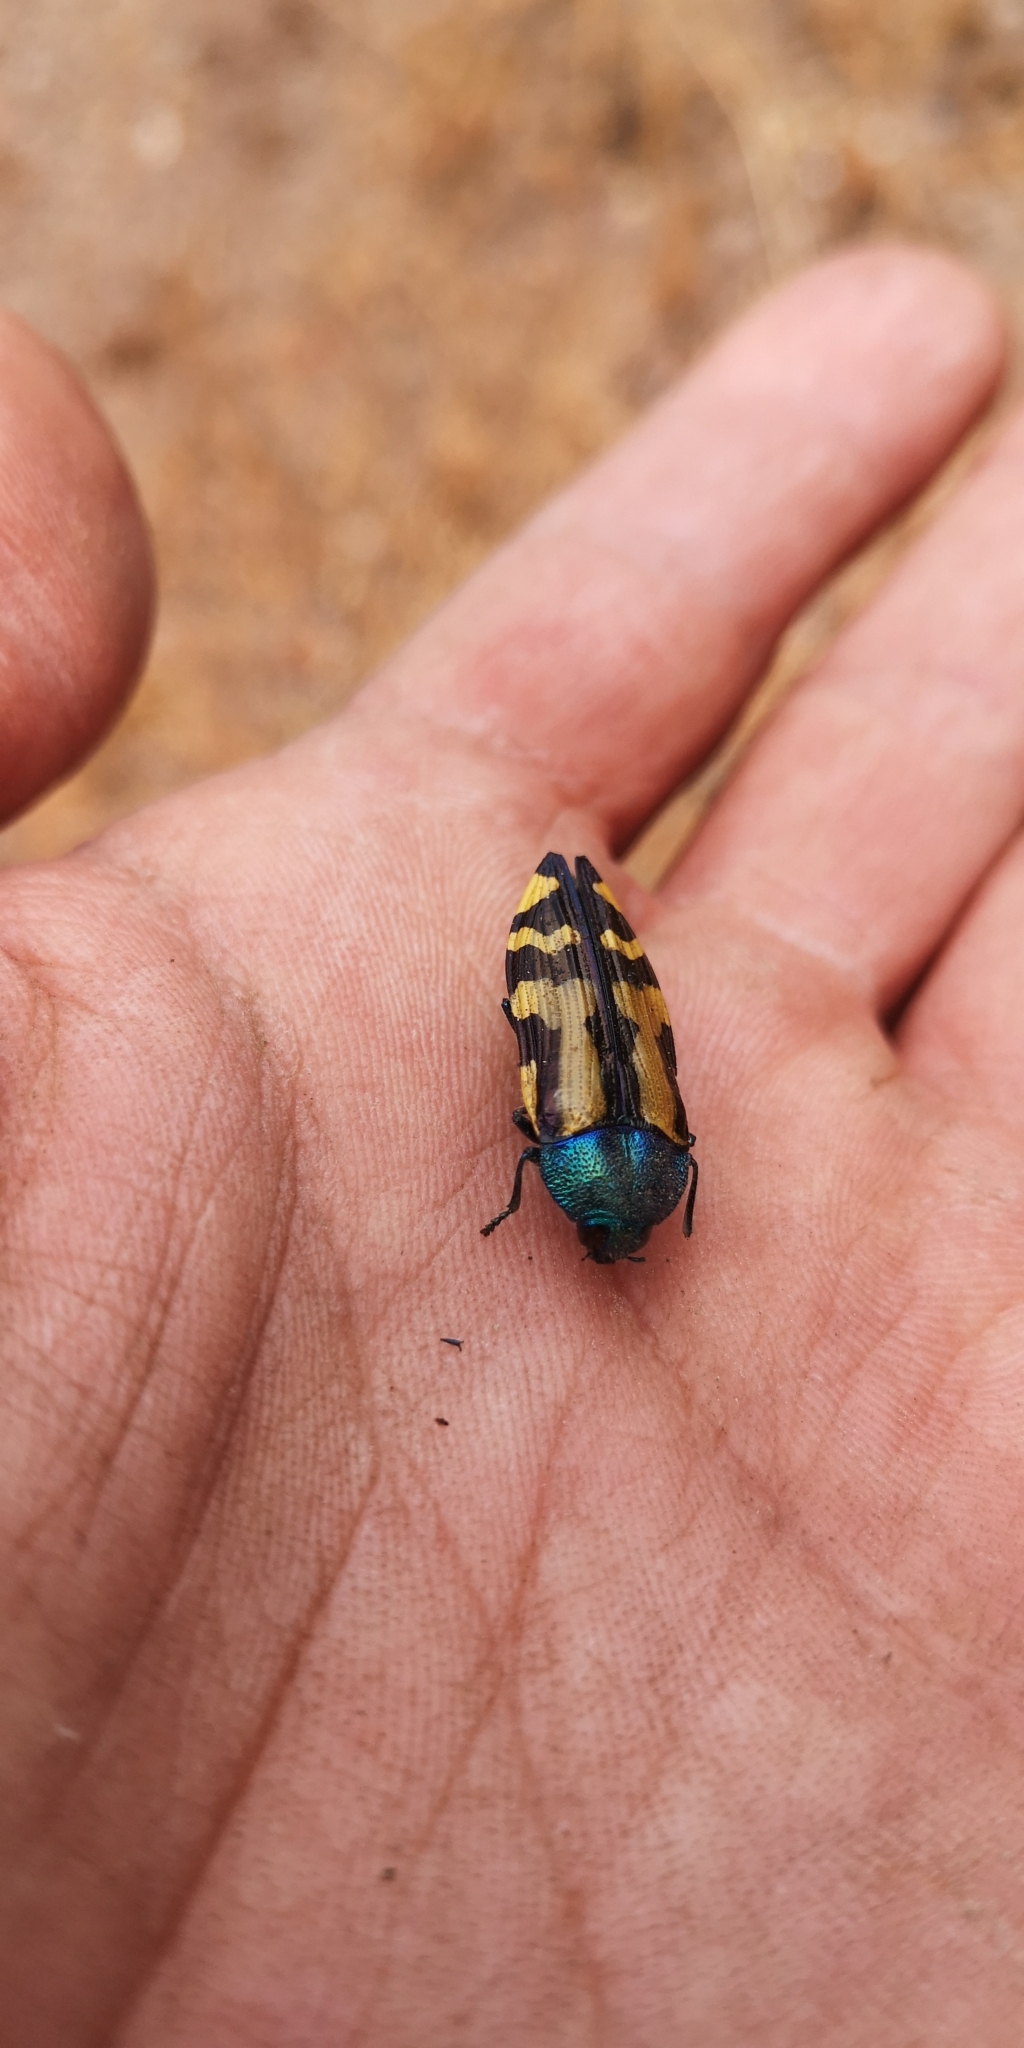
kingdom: Animalia
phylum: Arthropoda
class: Insecta
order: Coleoptera
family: Buprestidae
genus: Conognatha
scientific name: Conognatha chiliensis
